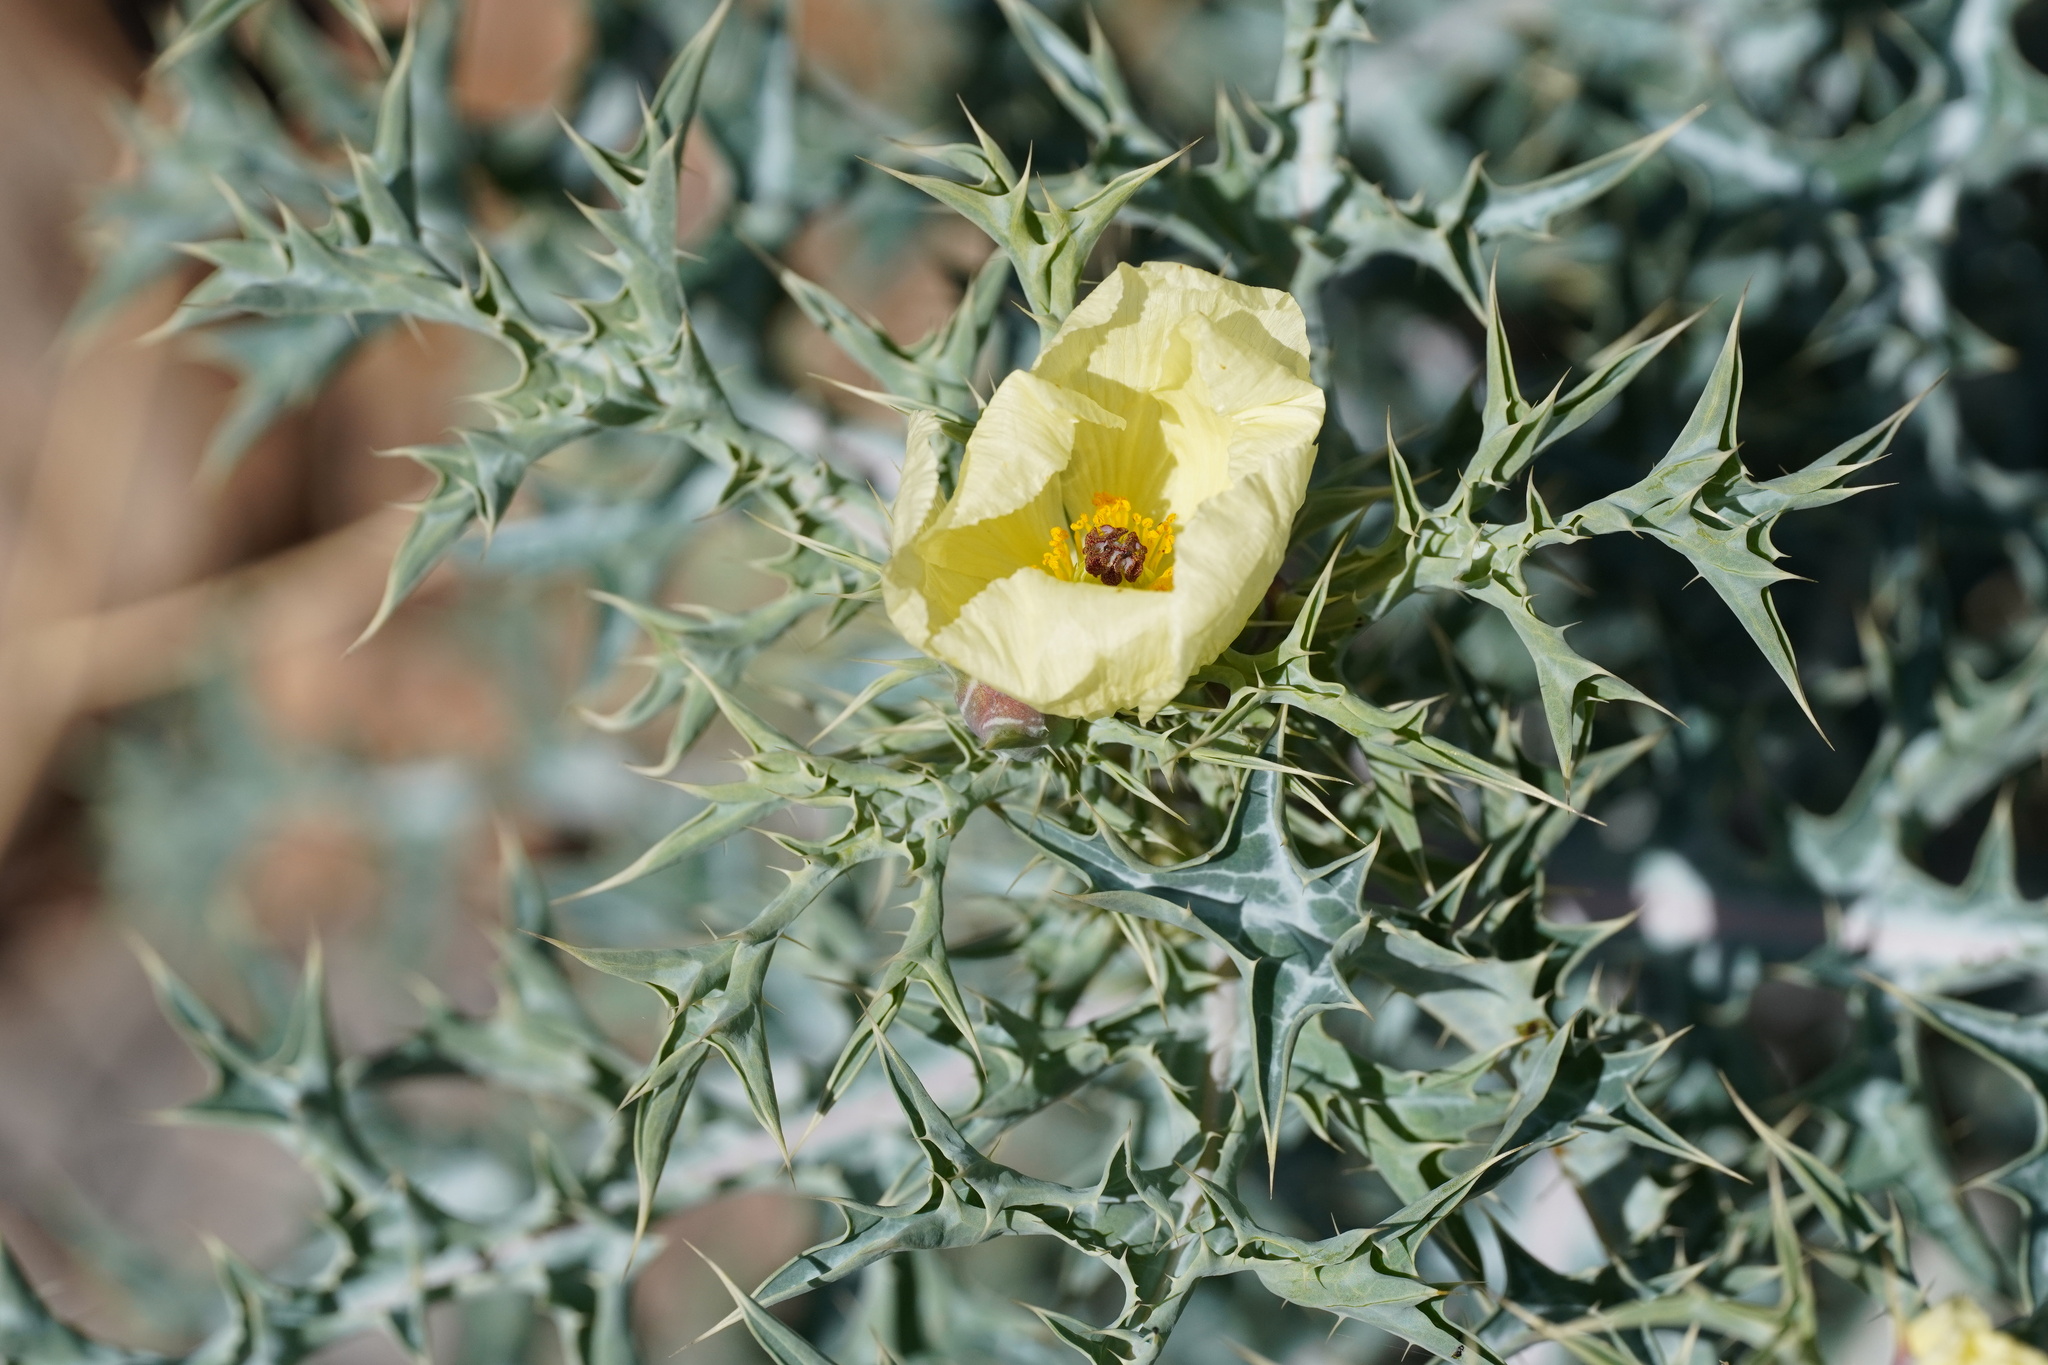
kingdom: Plantae
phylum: Tracheophyta
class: Magnoliopsida
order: Ranunculales
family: Papaveraceae
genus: Argemone
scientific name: Argemone ochroleuca
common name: White-flower mexican-poppy
